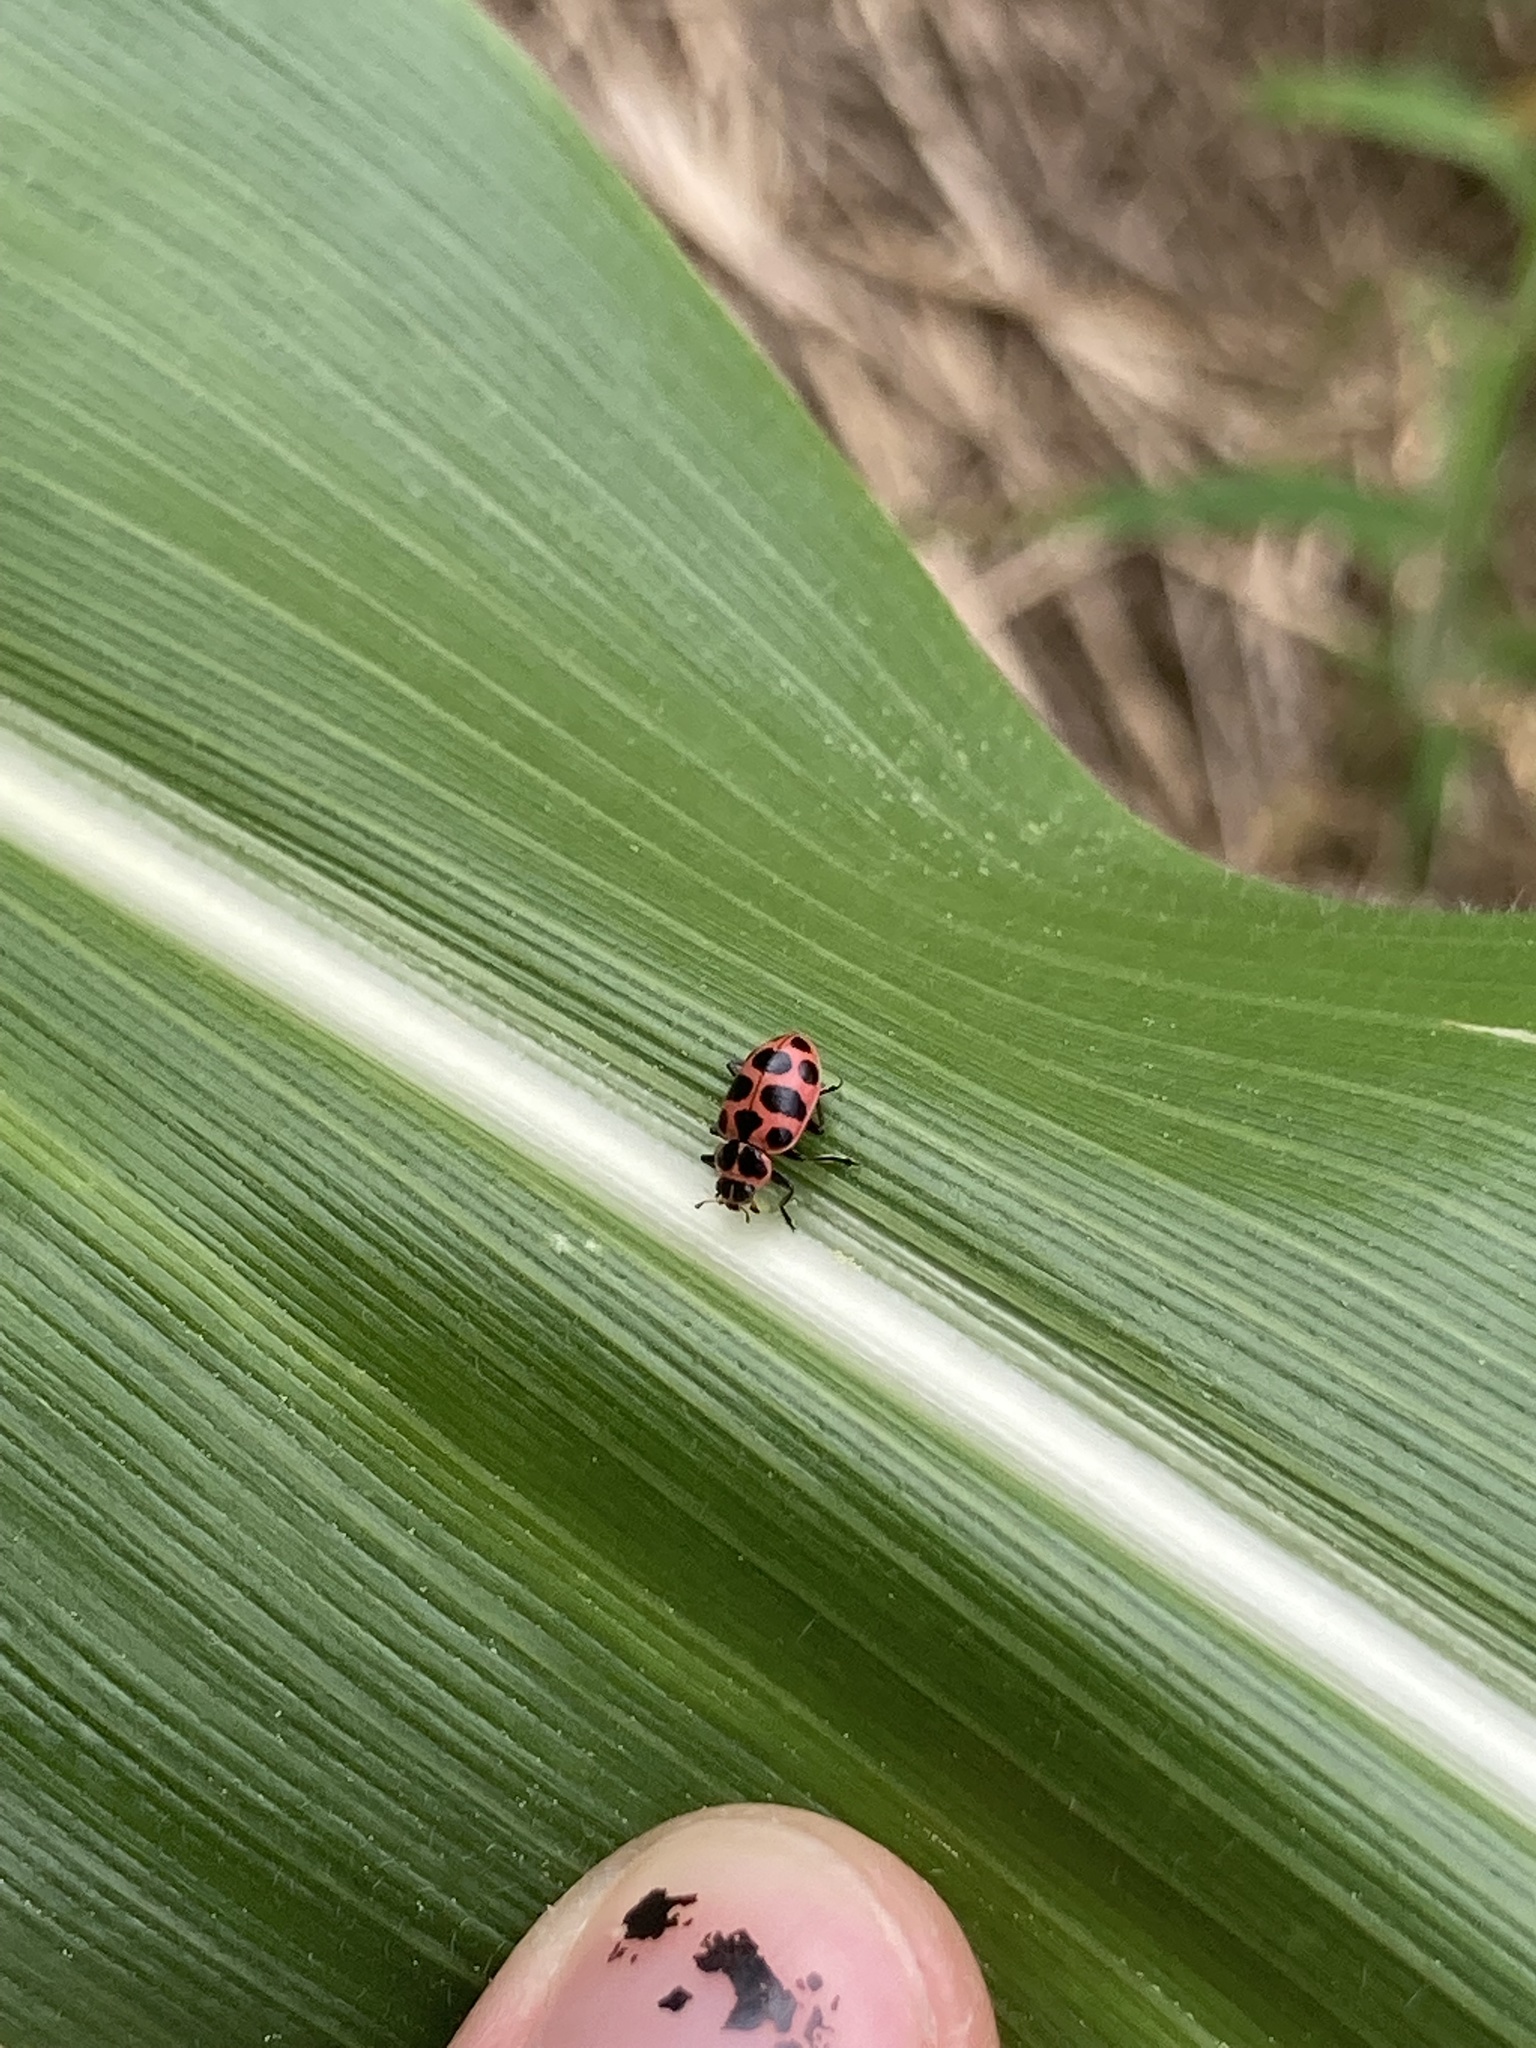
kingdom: Animalia
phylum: Arthropoda
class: Insecta
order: Coleoptera
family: Coccinellidae
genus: Coleomegilla
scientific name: Coleomegilla maculata
